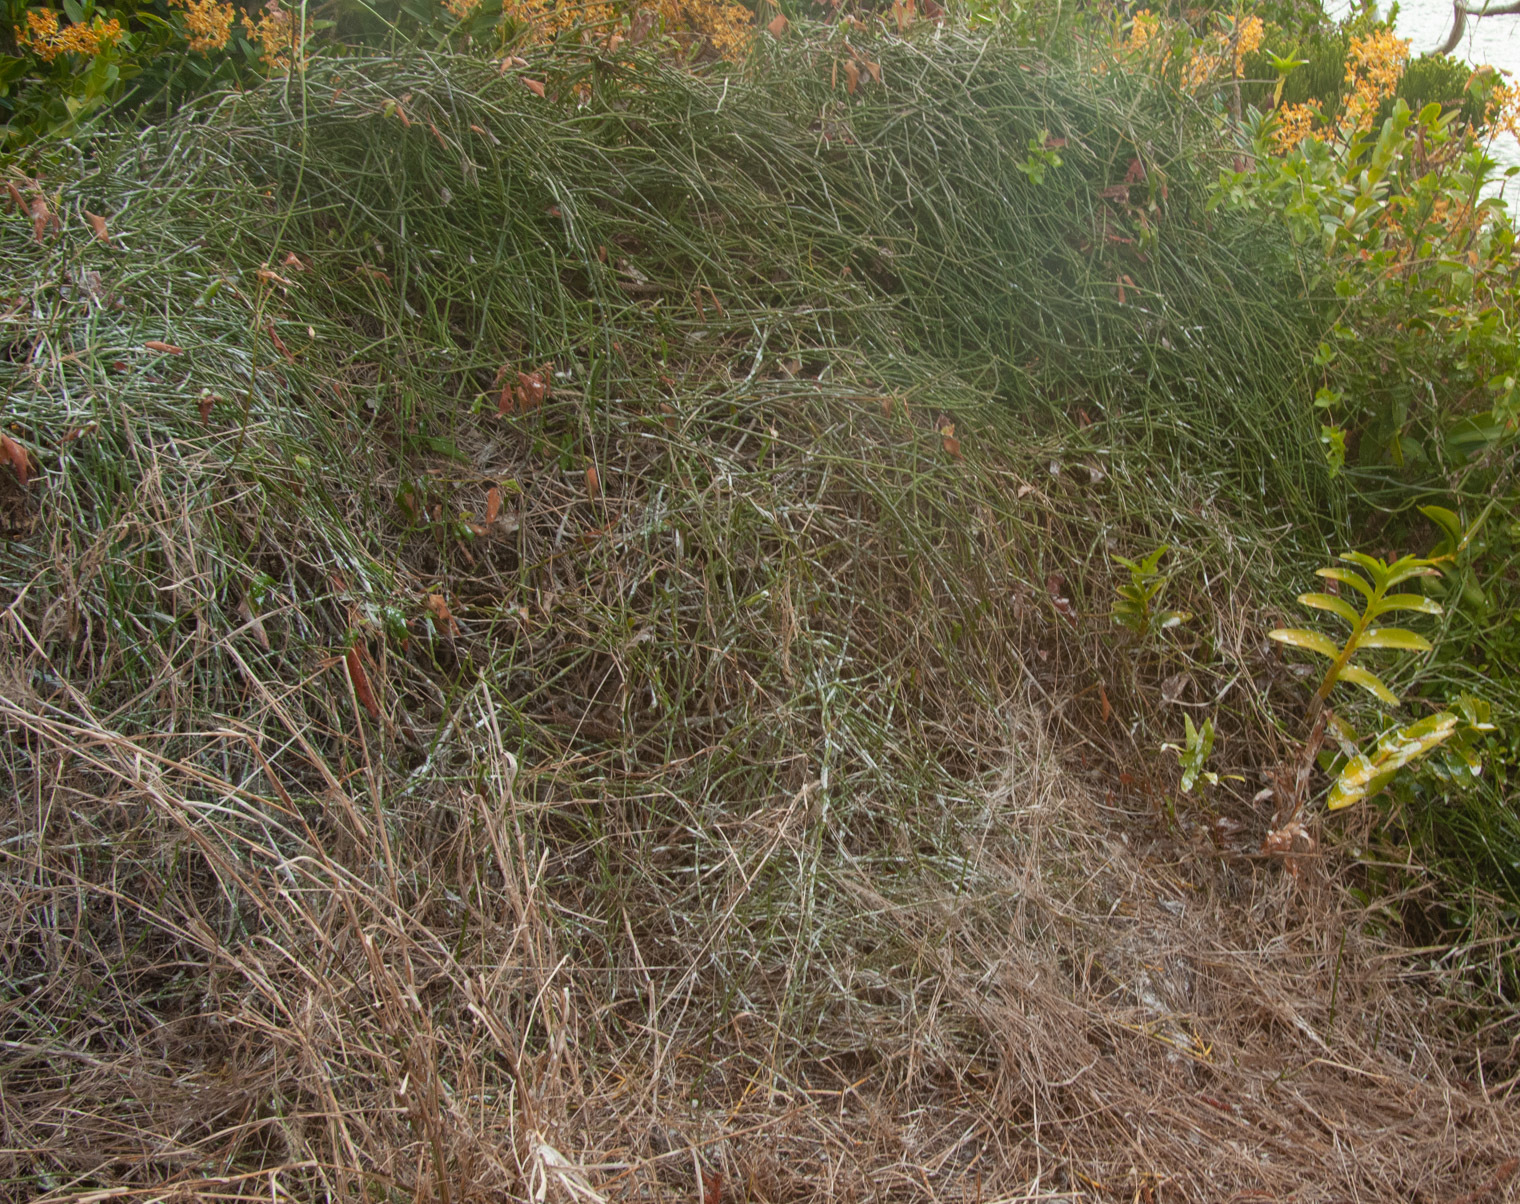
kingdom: Plantae
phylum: Tracheophyta
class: Magnoliopsida
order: Gentianales
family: Apocynaceae
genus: Cynanchum
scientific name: Cynanchum viminale
